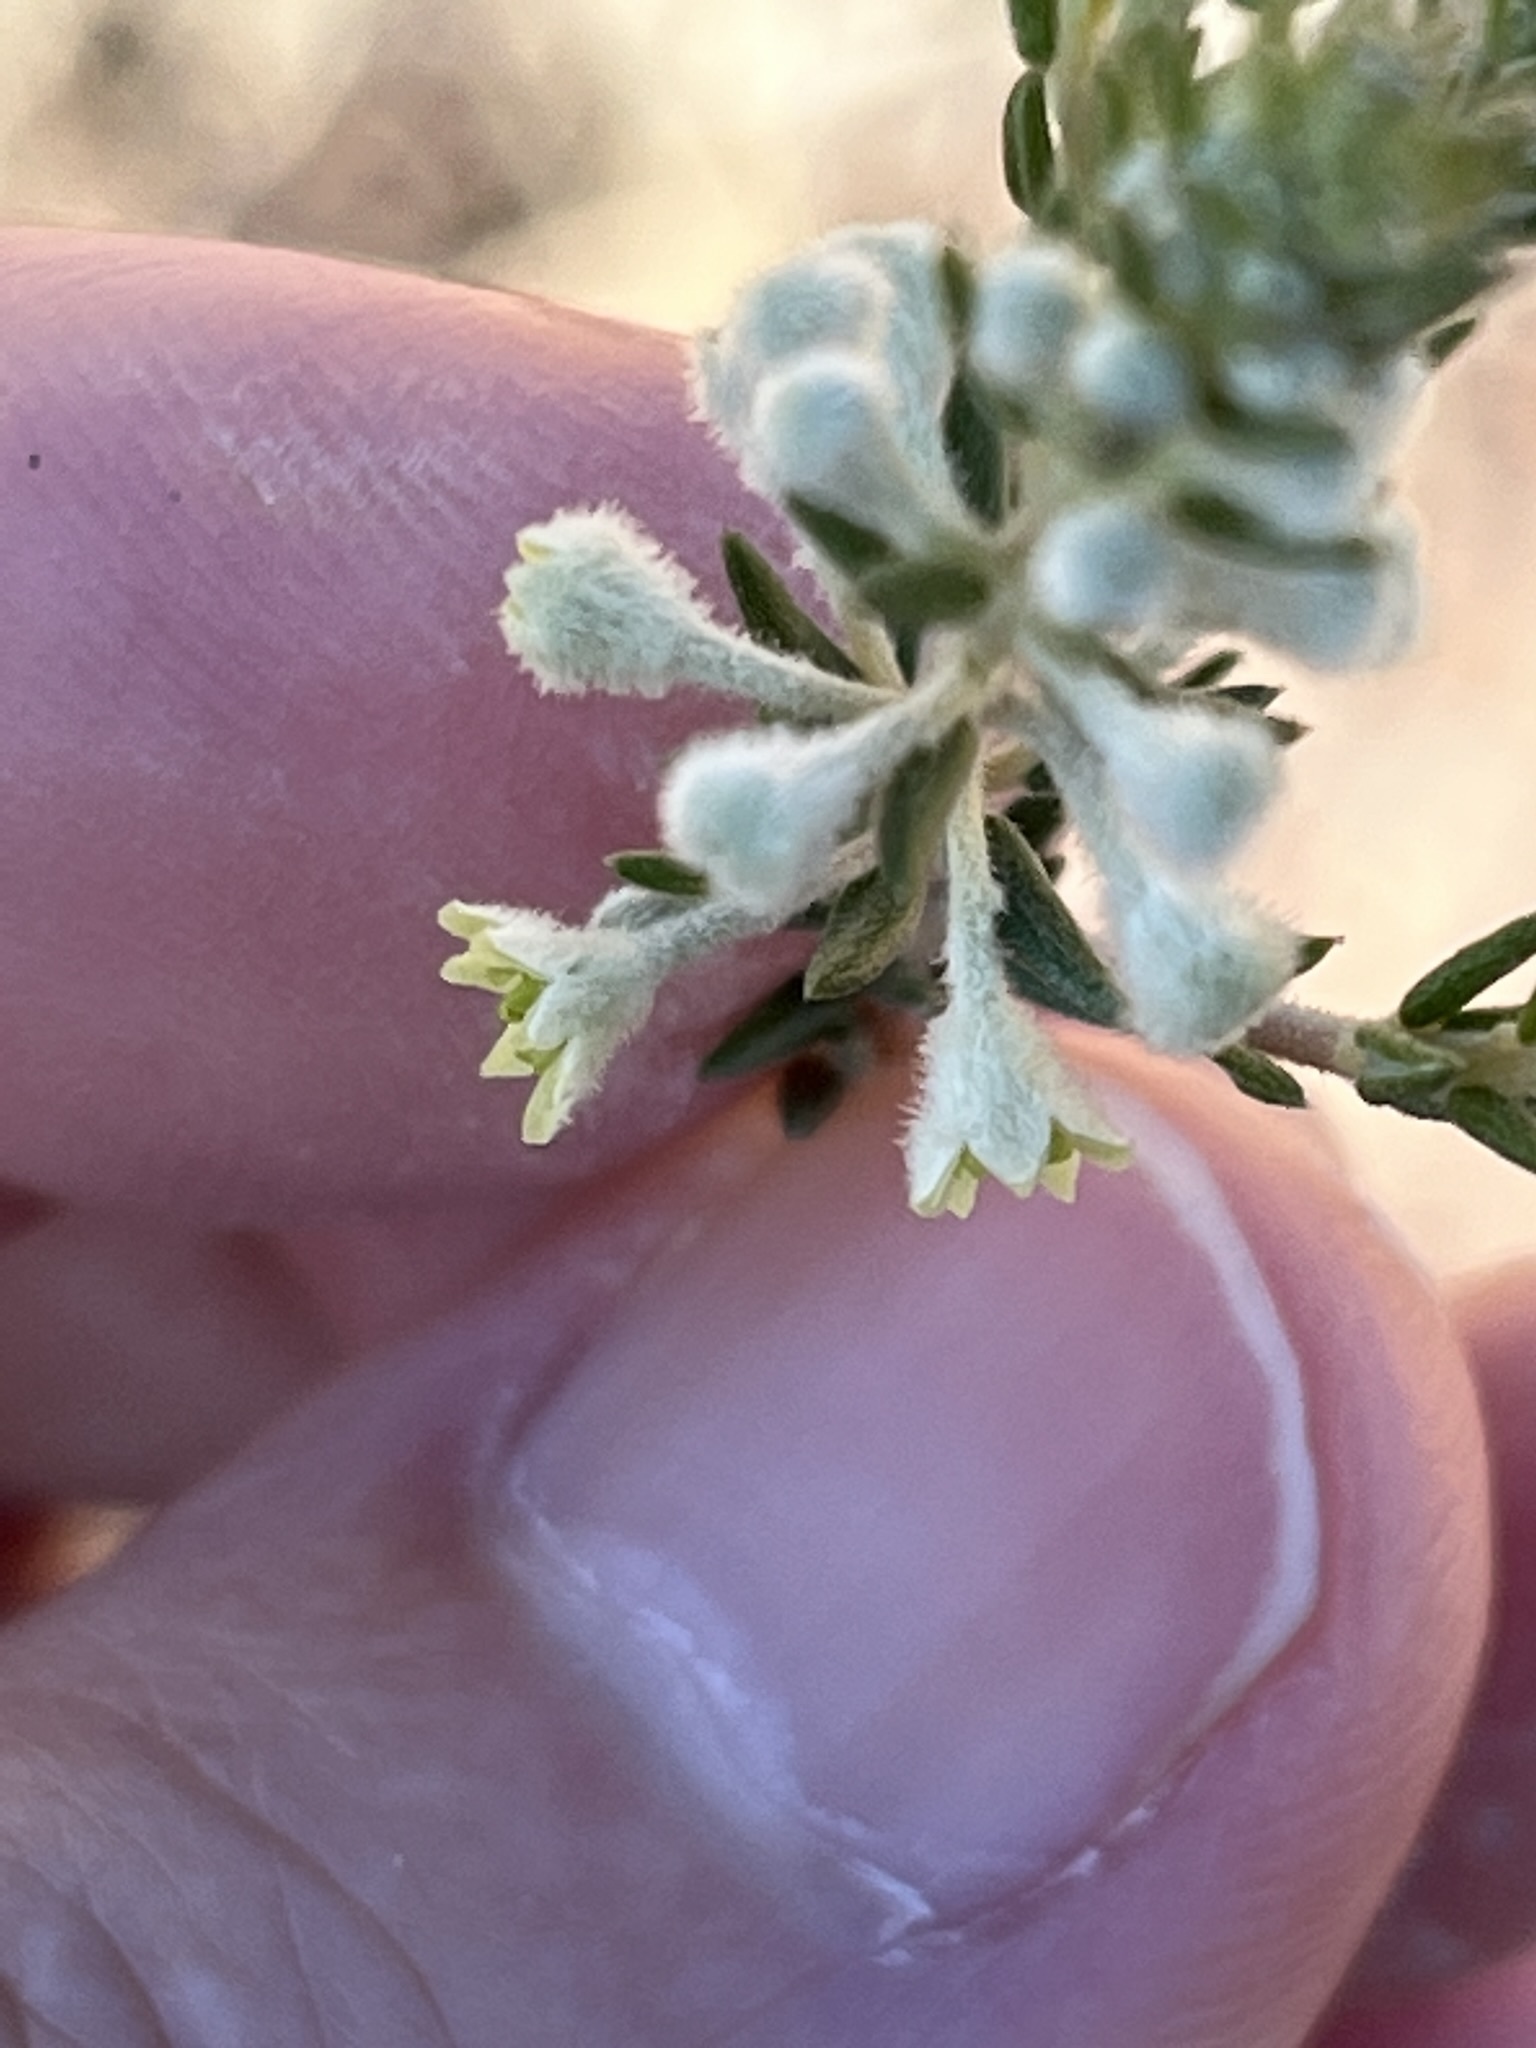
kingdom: Plantae
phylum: Tracheophyta
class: Magnoliopsida
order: Rosales
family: Rhamnaceae
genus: Phylica
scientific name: Phylica elimensis
